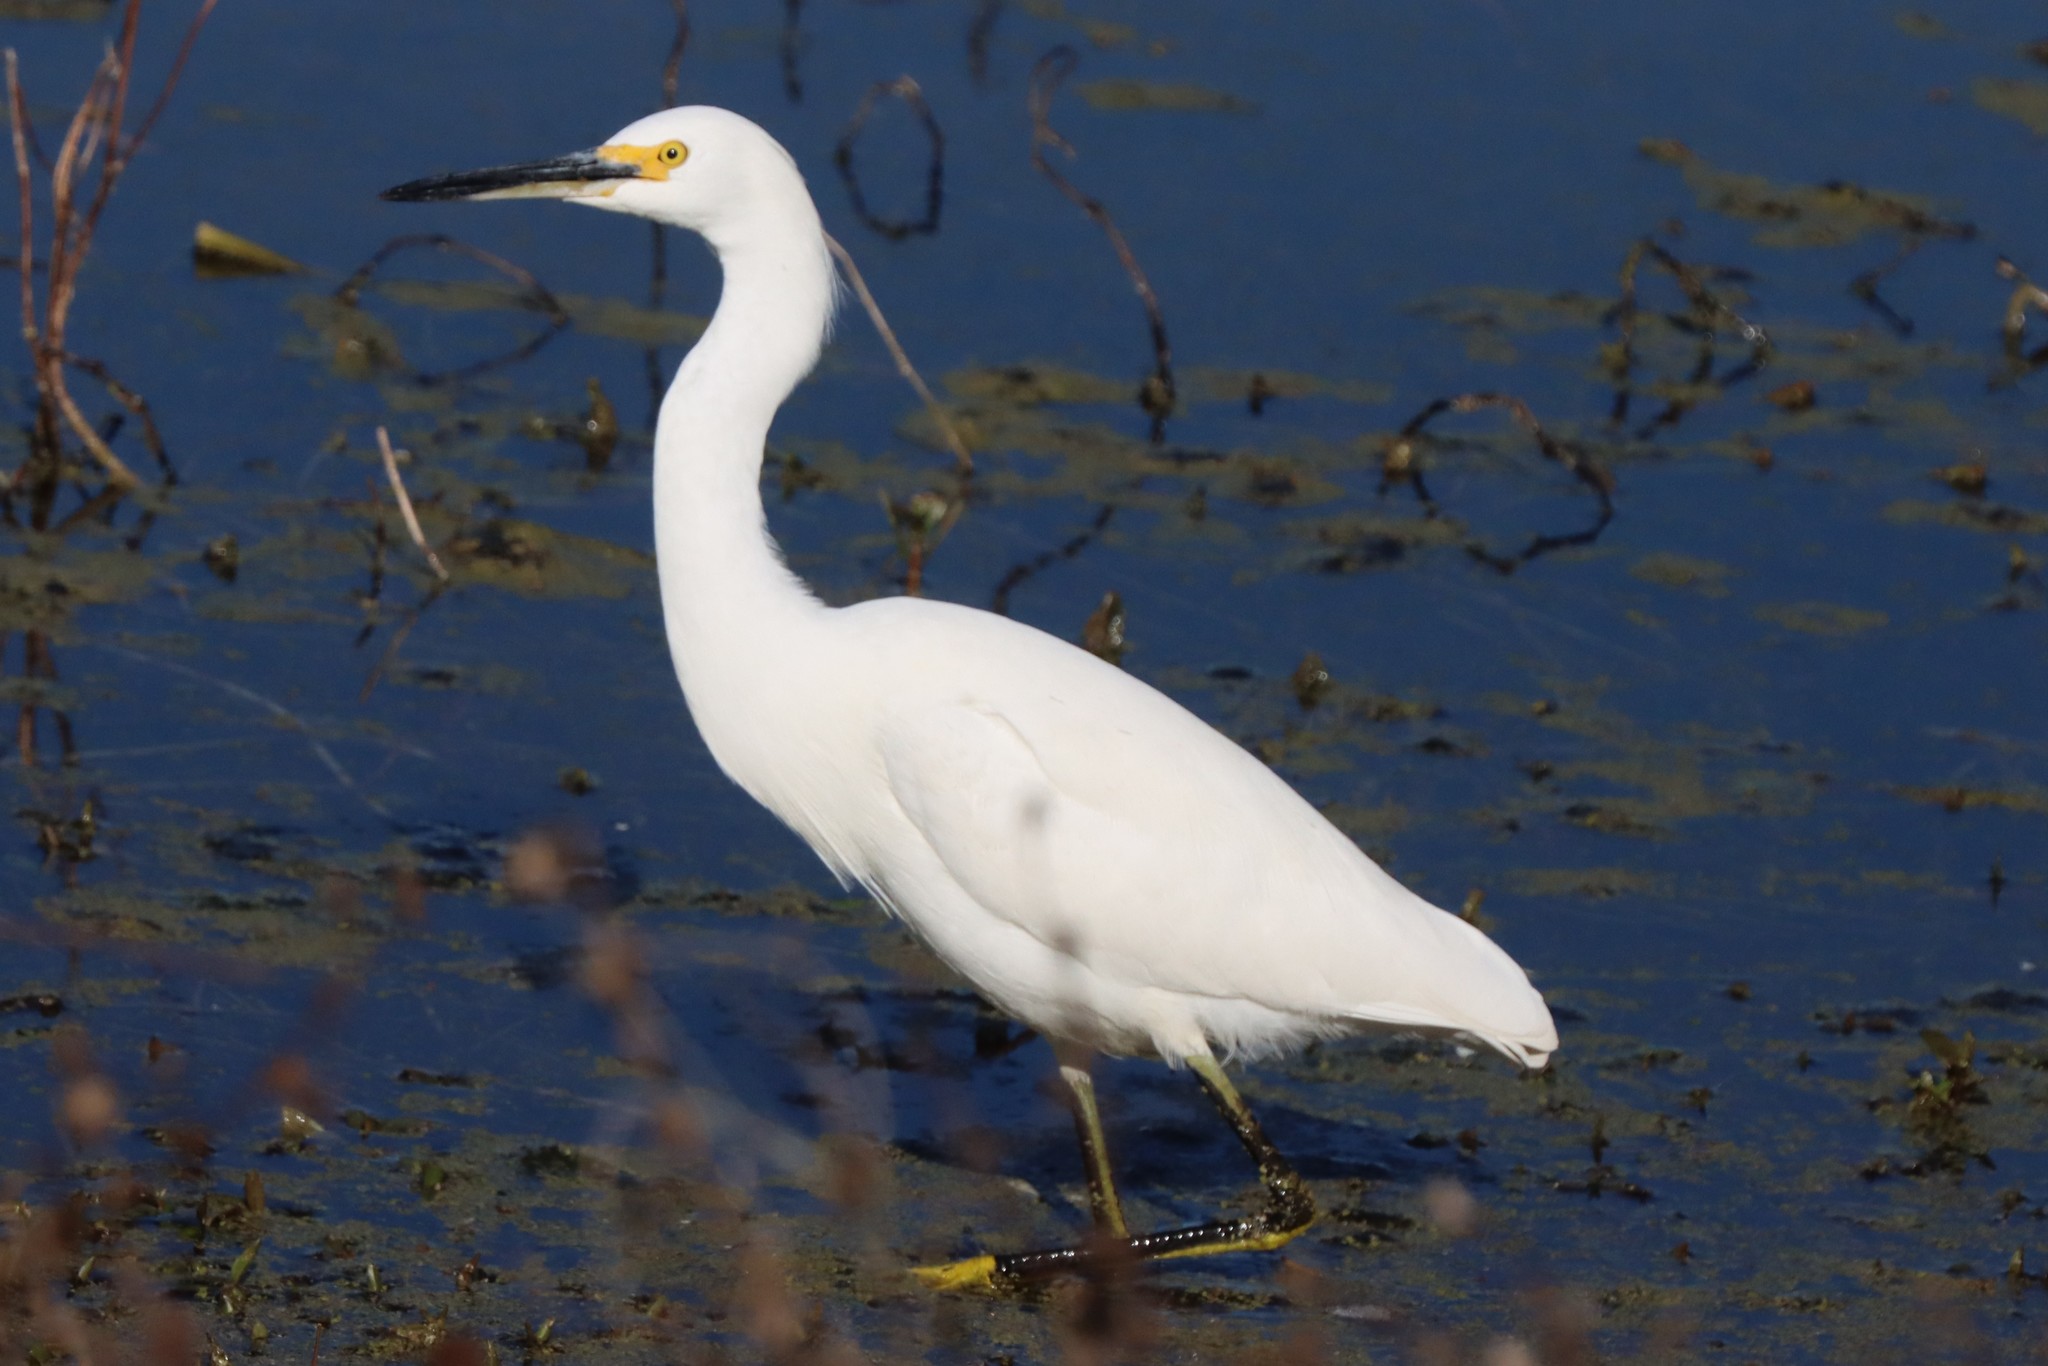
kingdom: Animalia
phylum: Chordata
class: Aves
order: Pelecaniformes
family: Ardeidae
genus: Egretta
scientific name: Egretta thula
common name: Snowy egret
